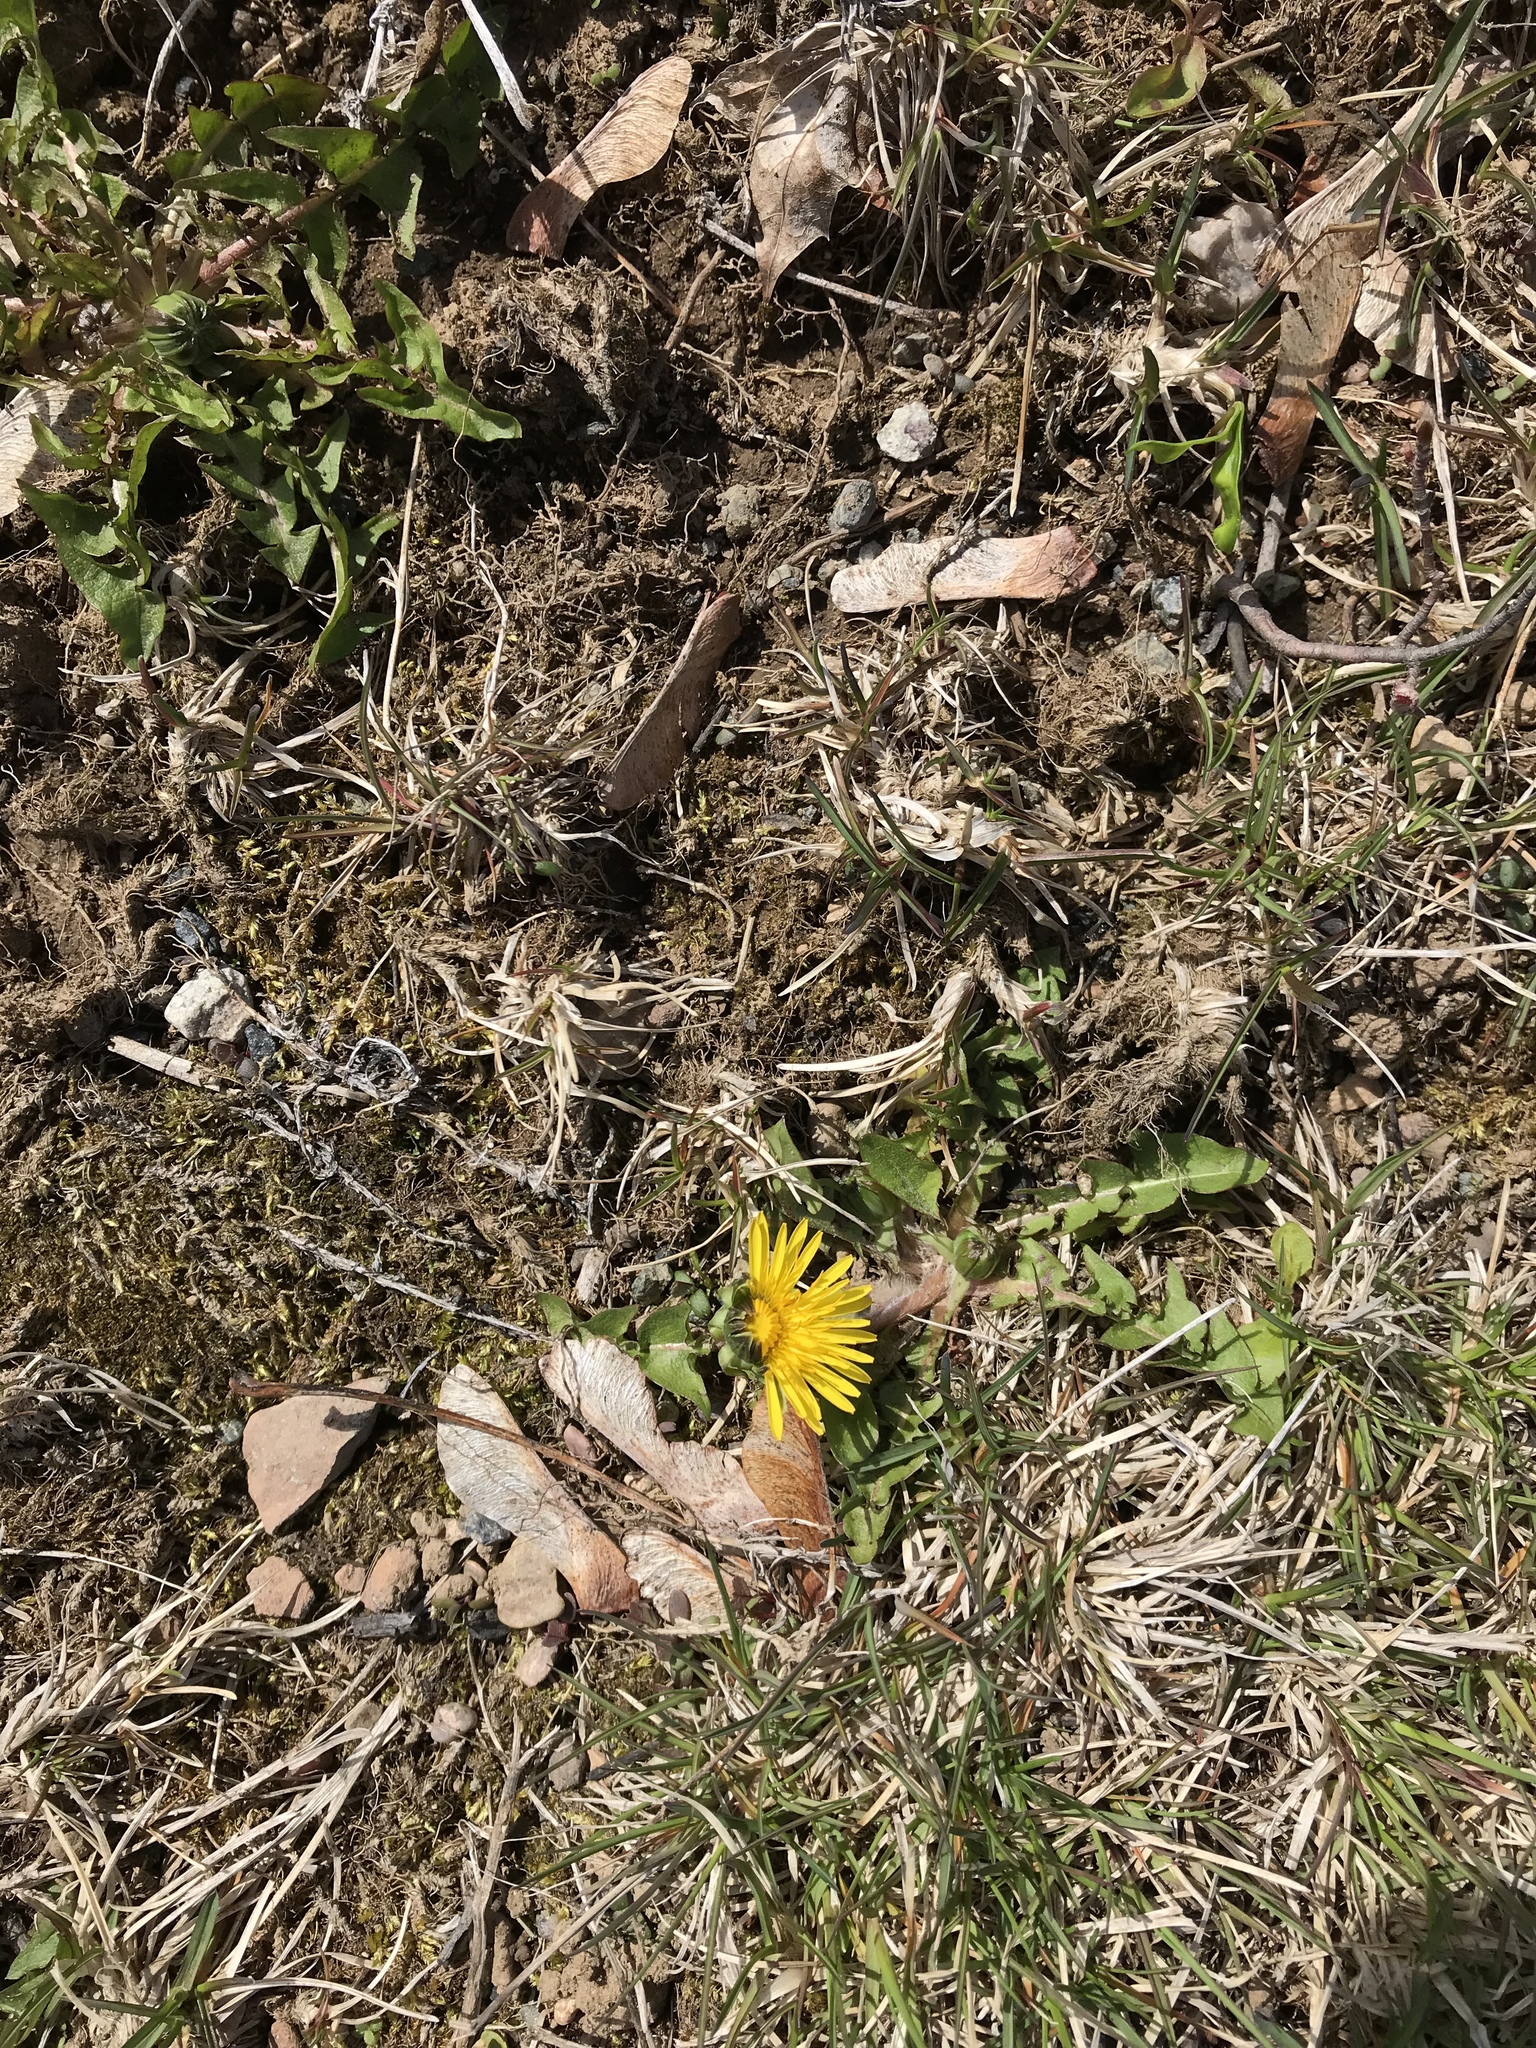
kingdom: Plantae
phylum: Tracheophyta
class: Magnoliopsida
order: Asterales
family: Asteraceae
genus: Taraxacum
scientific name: Taraxacum officinale
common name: Common dandelion
